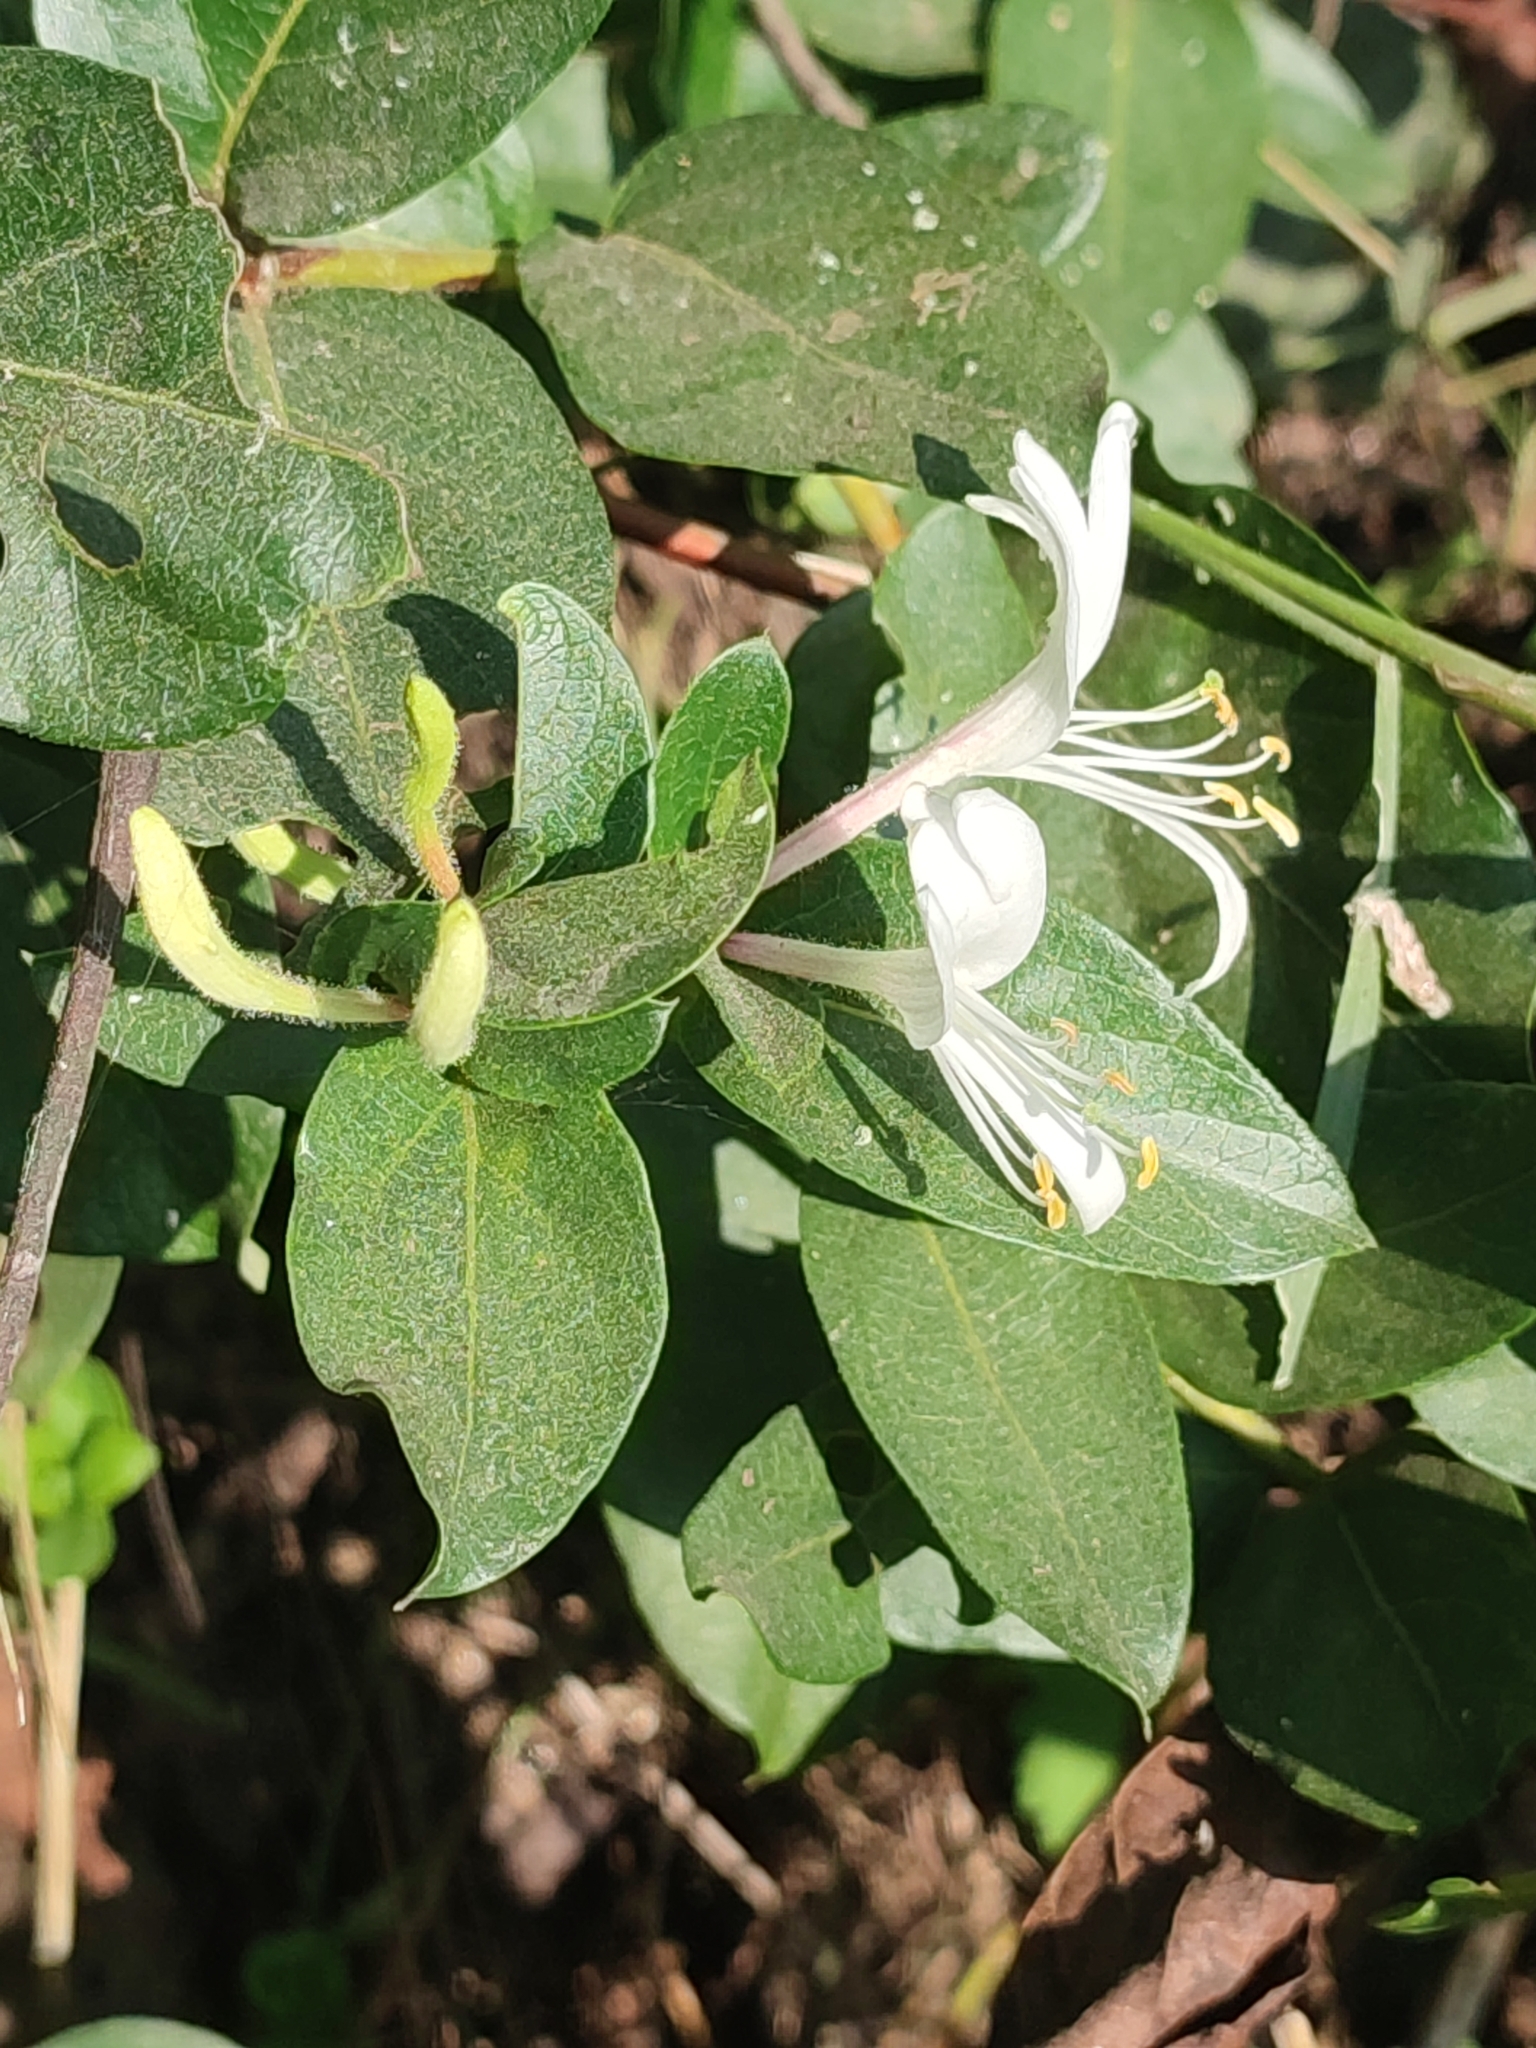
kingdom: Plantae
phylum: Tracheophyta
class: Magnoliopsida
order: Dipsacales
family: Caprifoliaceae
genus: Lonicera
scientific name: Lonicera japonica
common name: Japanese honeysuckle
